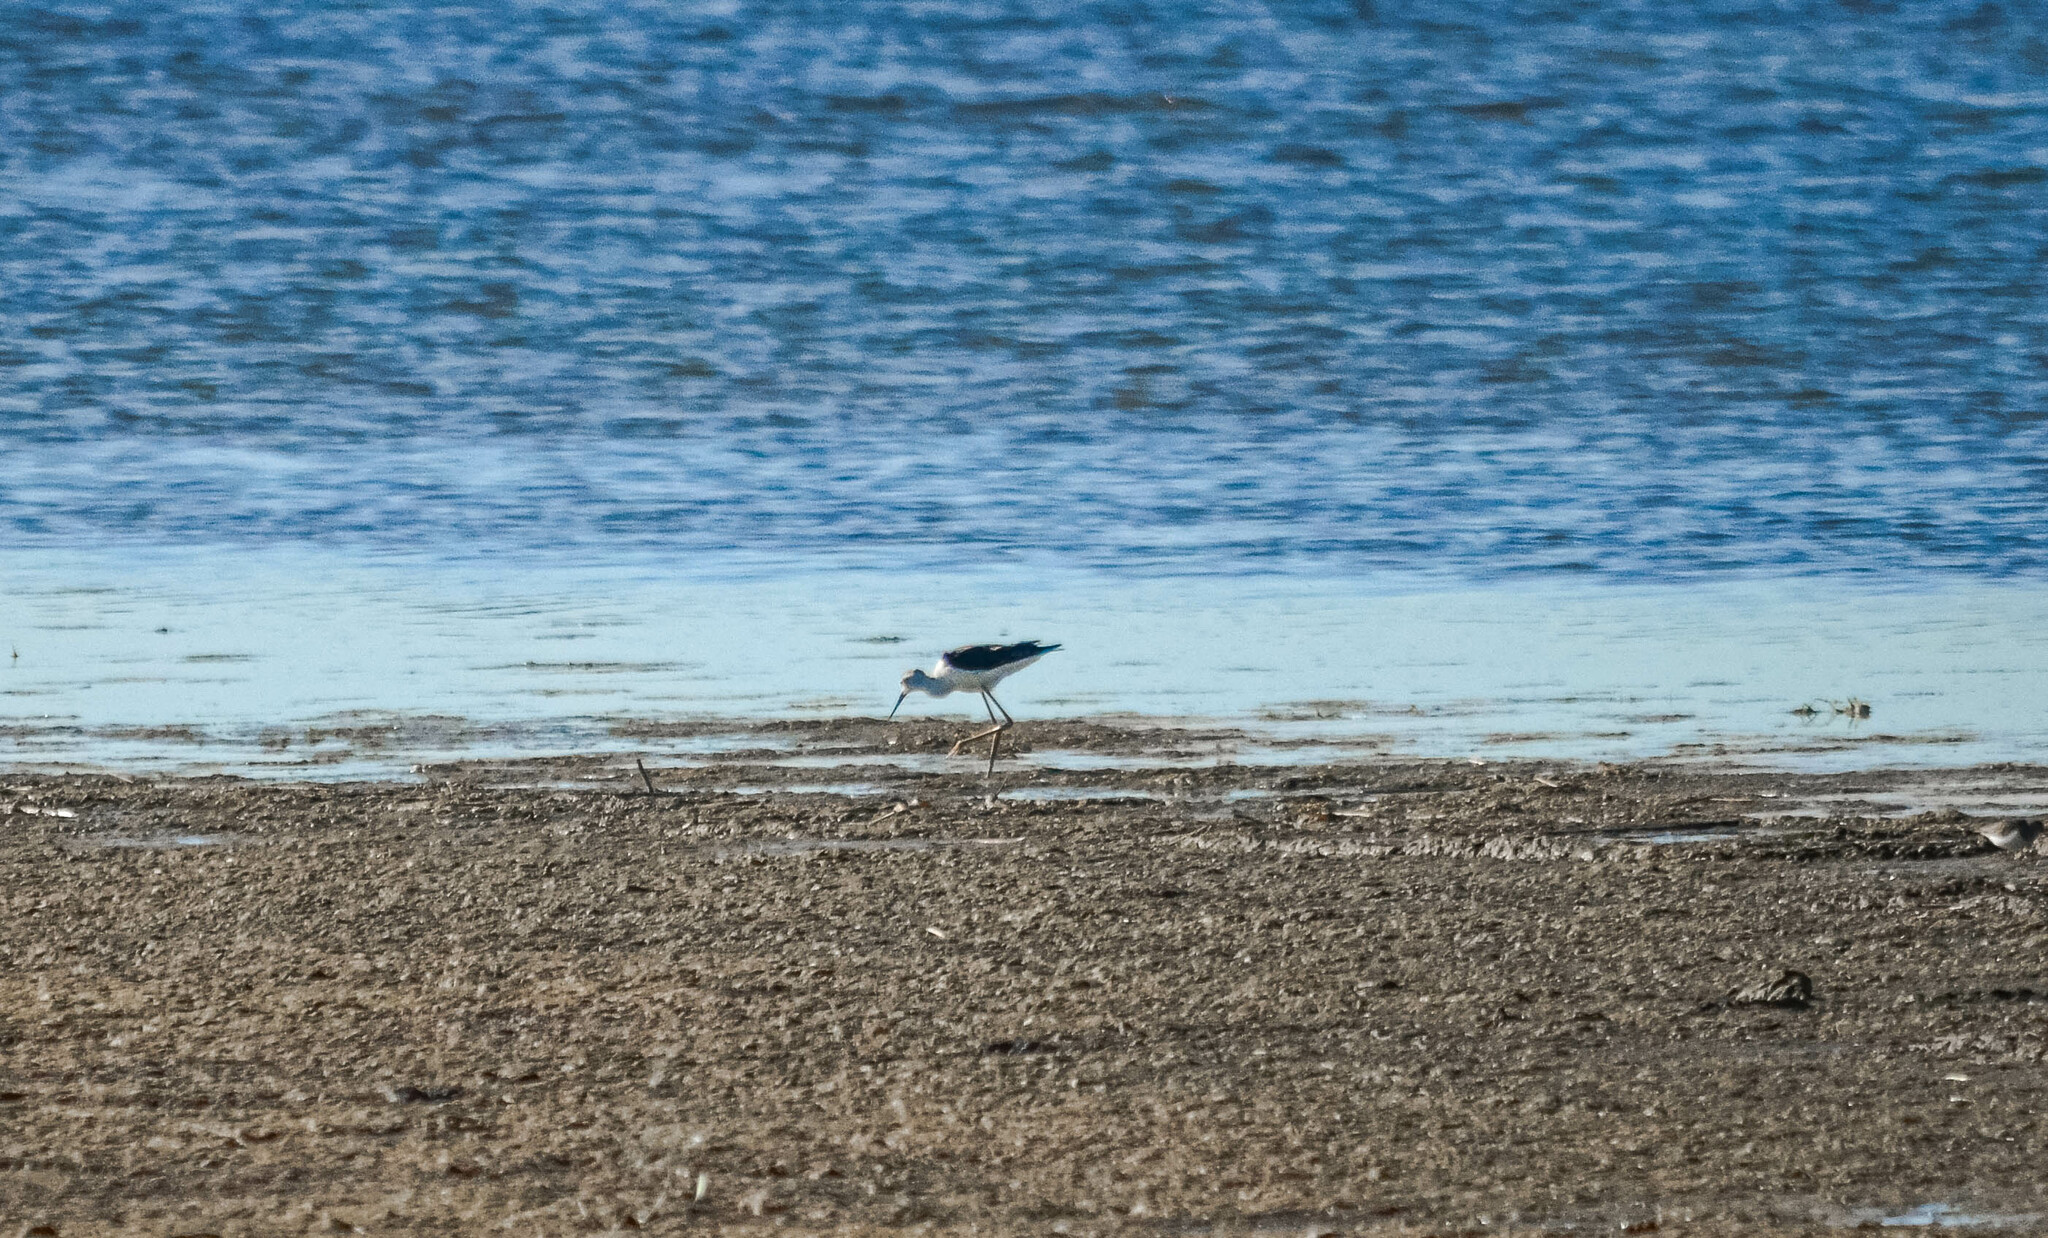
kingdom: Animalia
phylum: Chordata
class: Aves
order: Charadriiformes
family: Recurvirostridae
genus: Himantopus
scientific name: Himantopus himantopus
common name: Black-winged stilt
